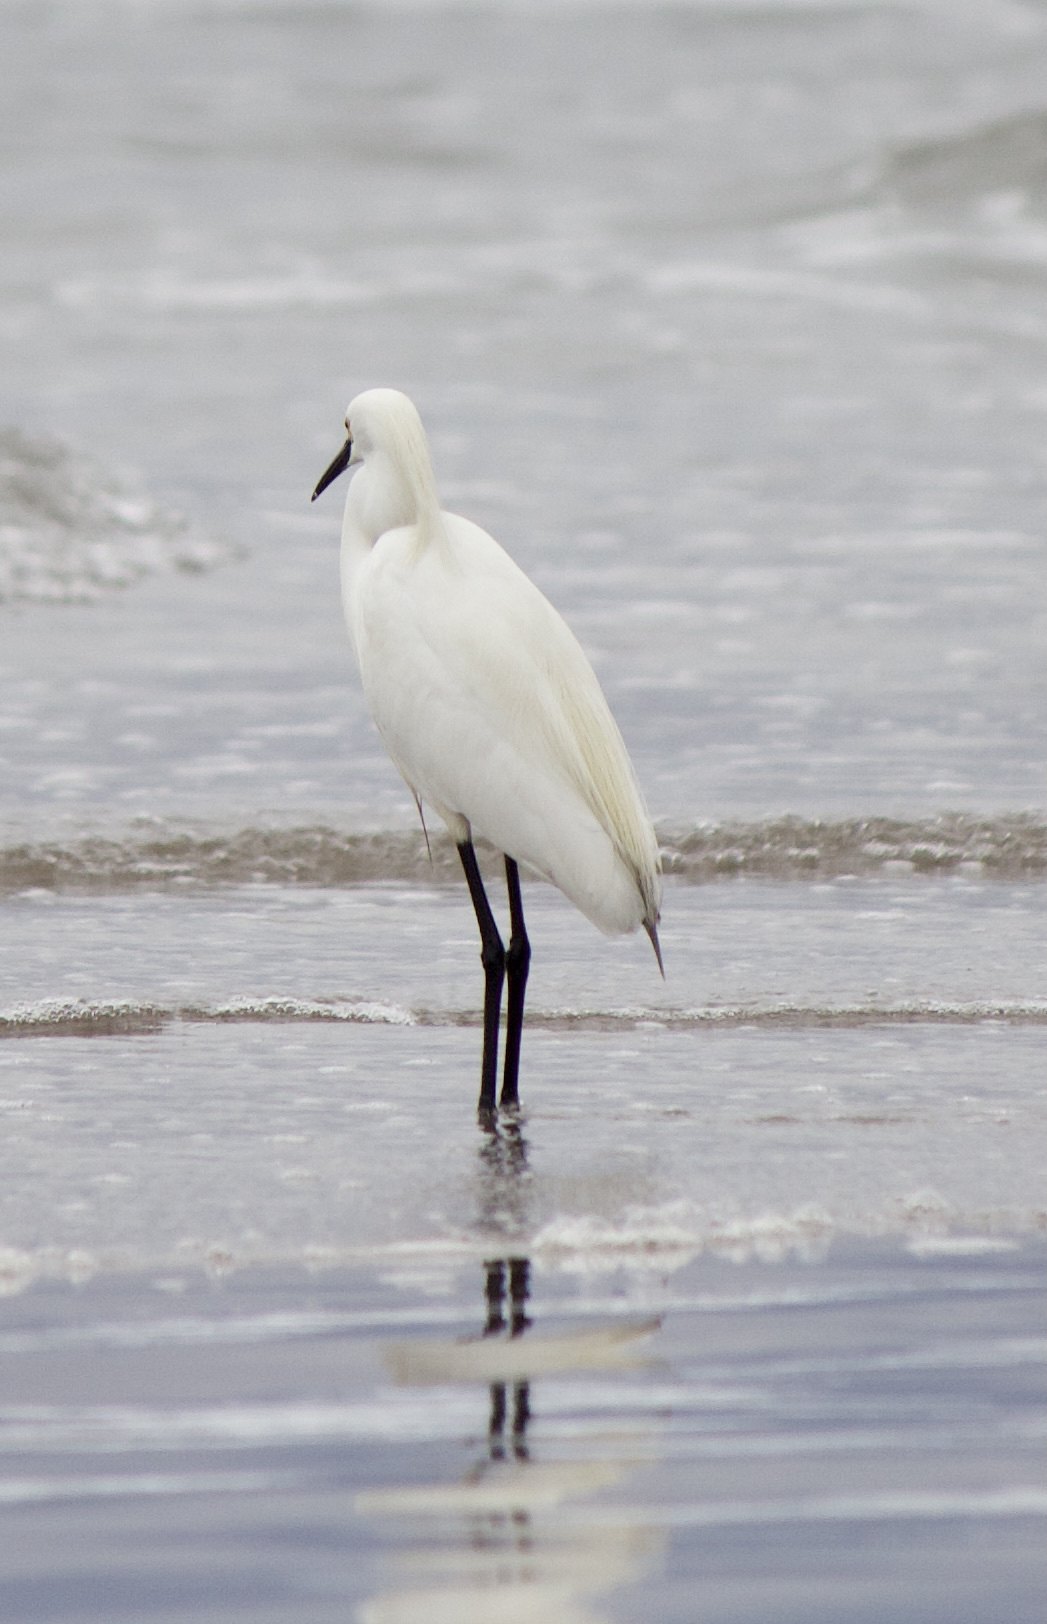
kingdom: Animalia
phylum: Chordata
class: Aves
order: Pelecaniformes
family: Ardeidae
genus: Egretta
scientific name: Egretta thula
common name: Snowy egret
